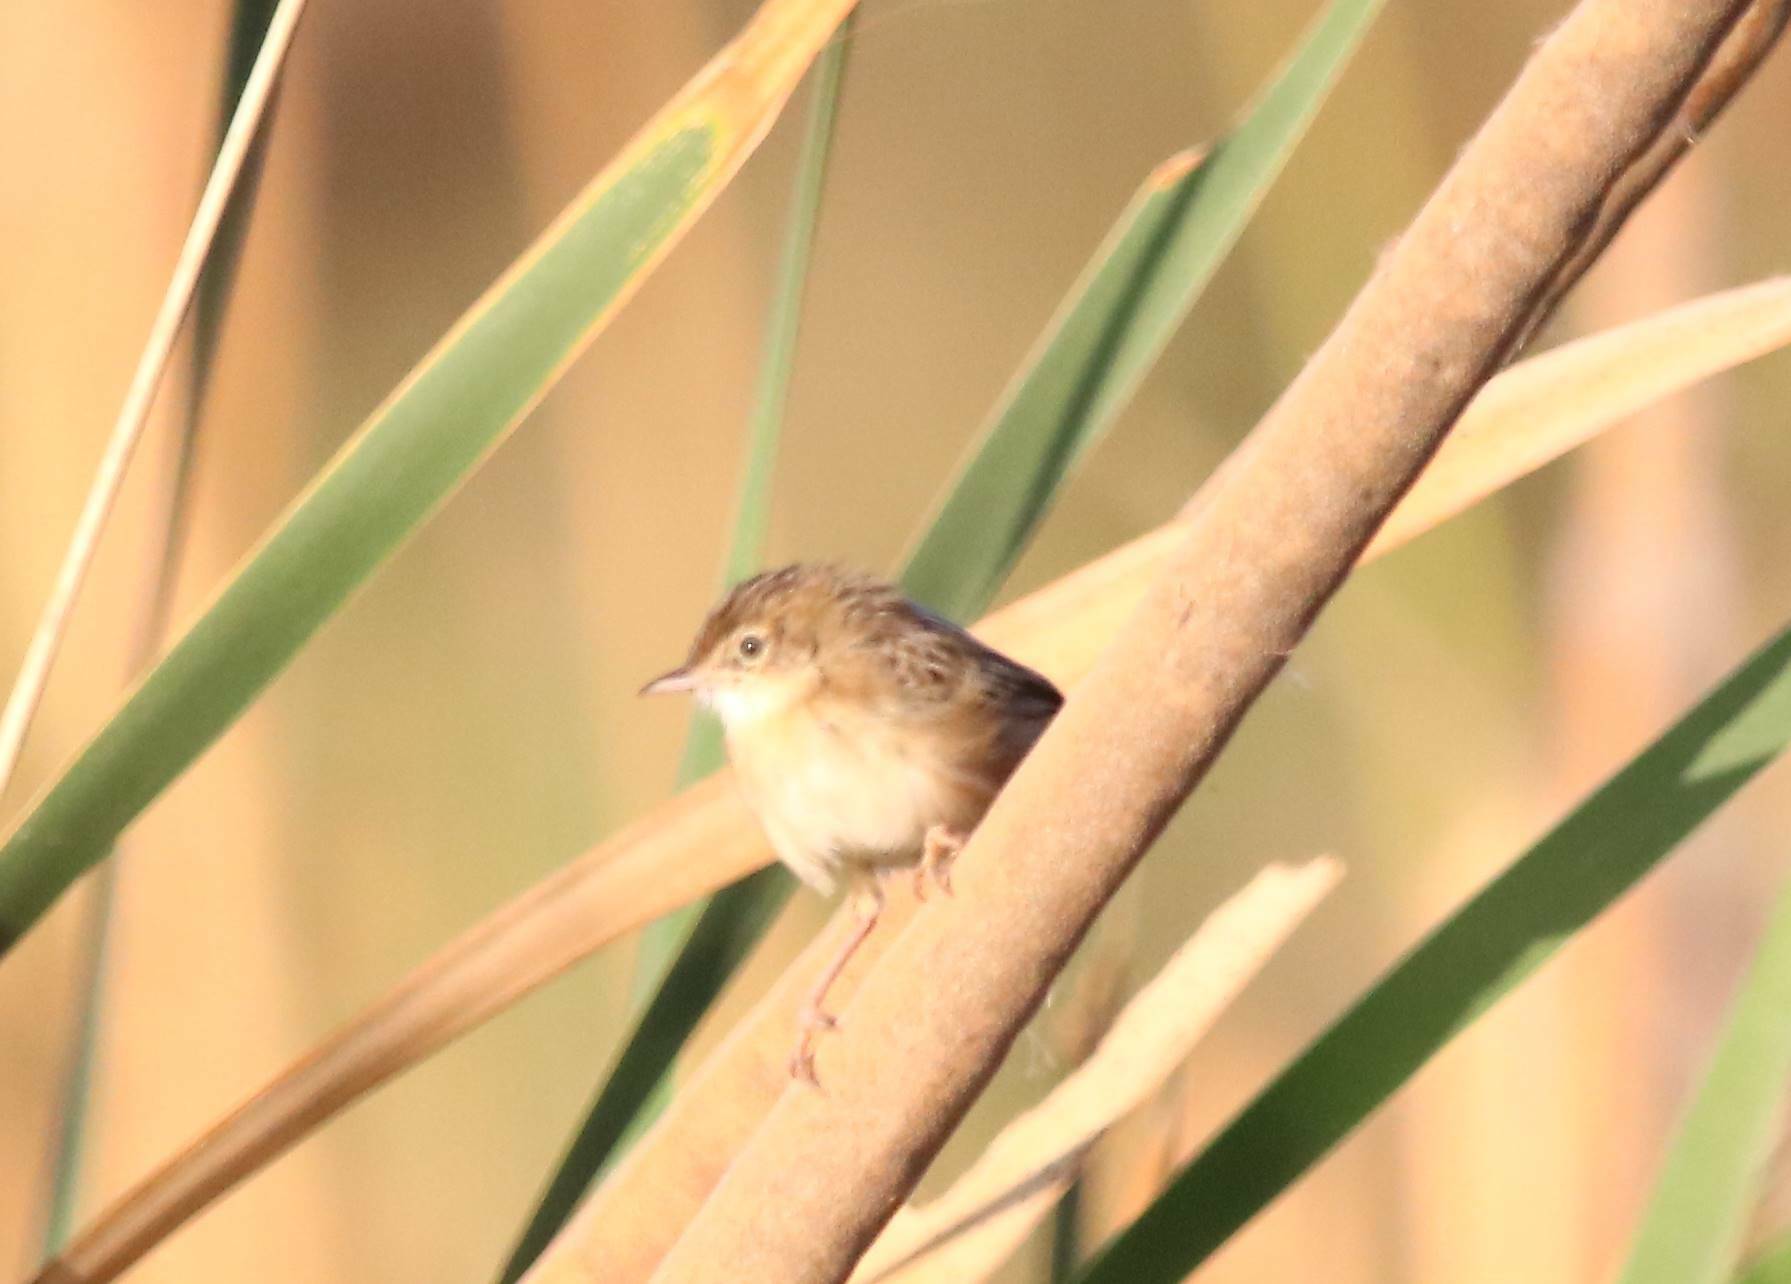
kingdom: Animalia
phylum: Chordata
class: Aves
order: Passeriformes
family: Cisticolidae
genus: Cisticola
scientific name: Cisticola juncidis
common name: Zitting cisticola
